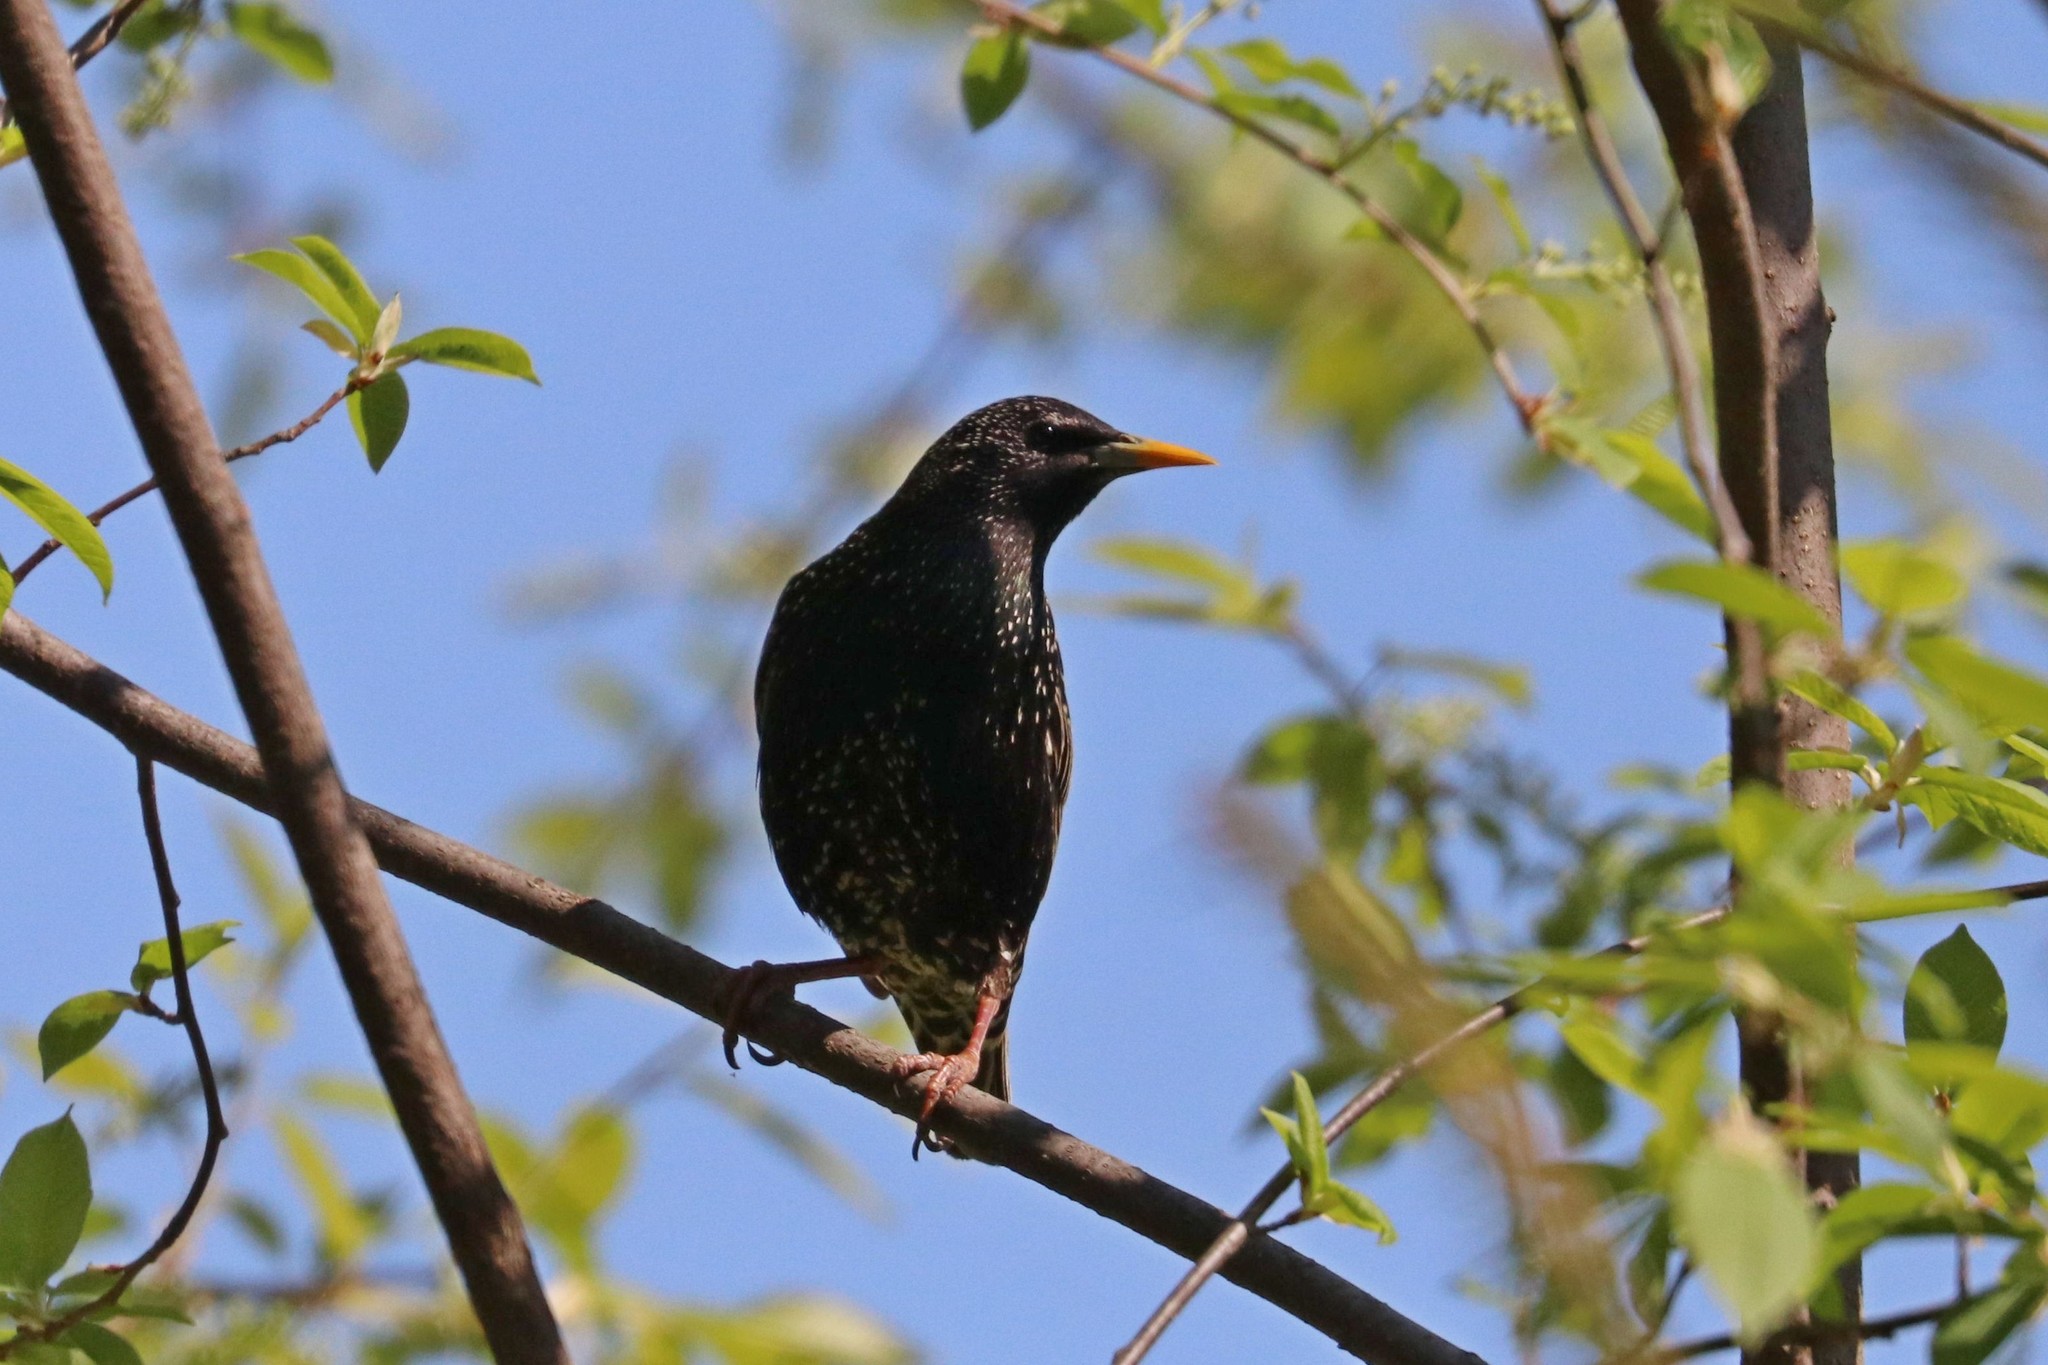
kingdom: Animalia
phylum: Chordata
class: Aves
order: Passeriformes
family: Sturnidae
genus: Sturnus
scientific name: Sturnus vulgaris
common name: Common starling
